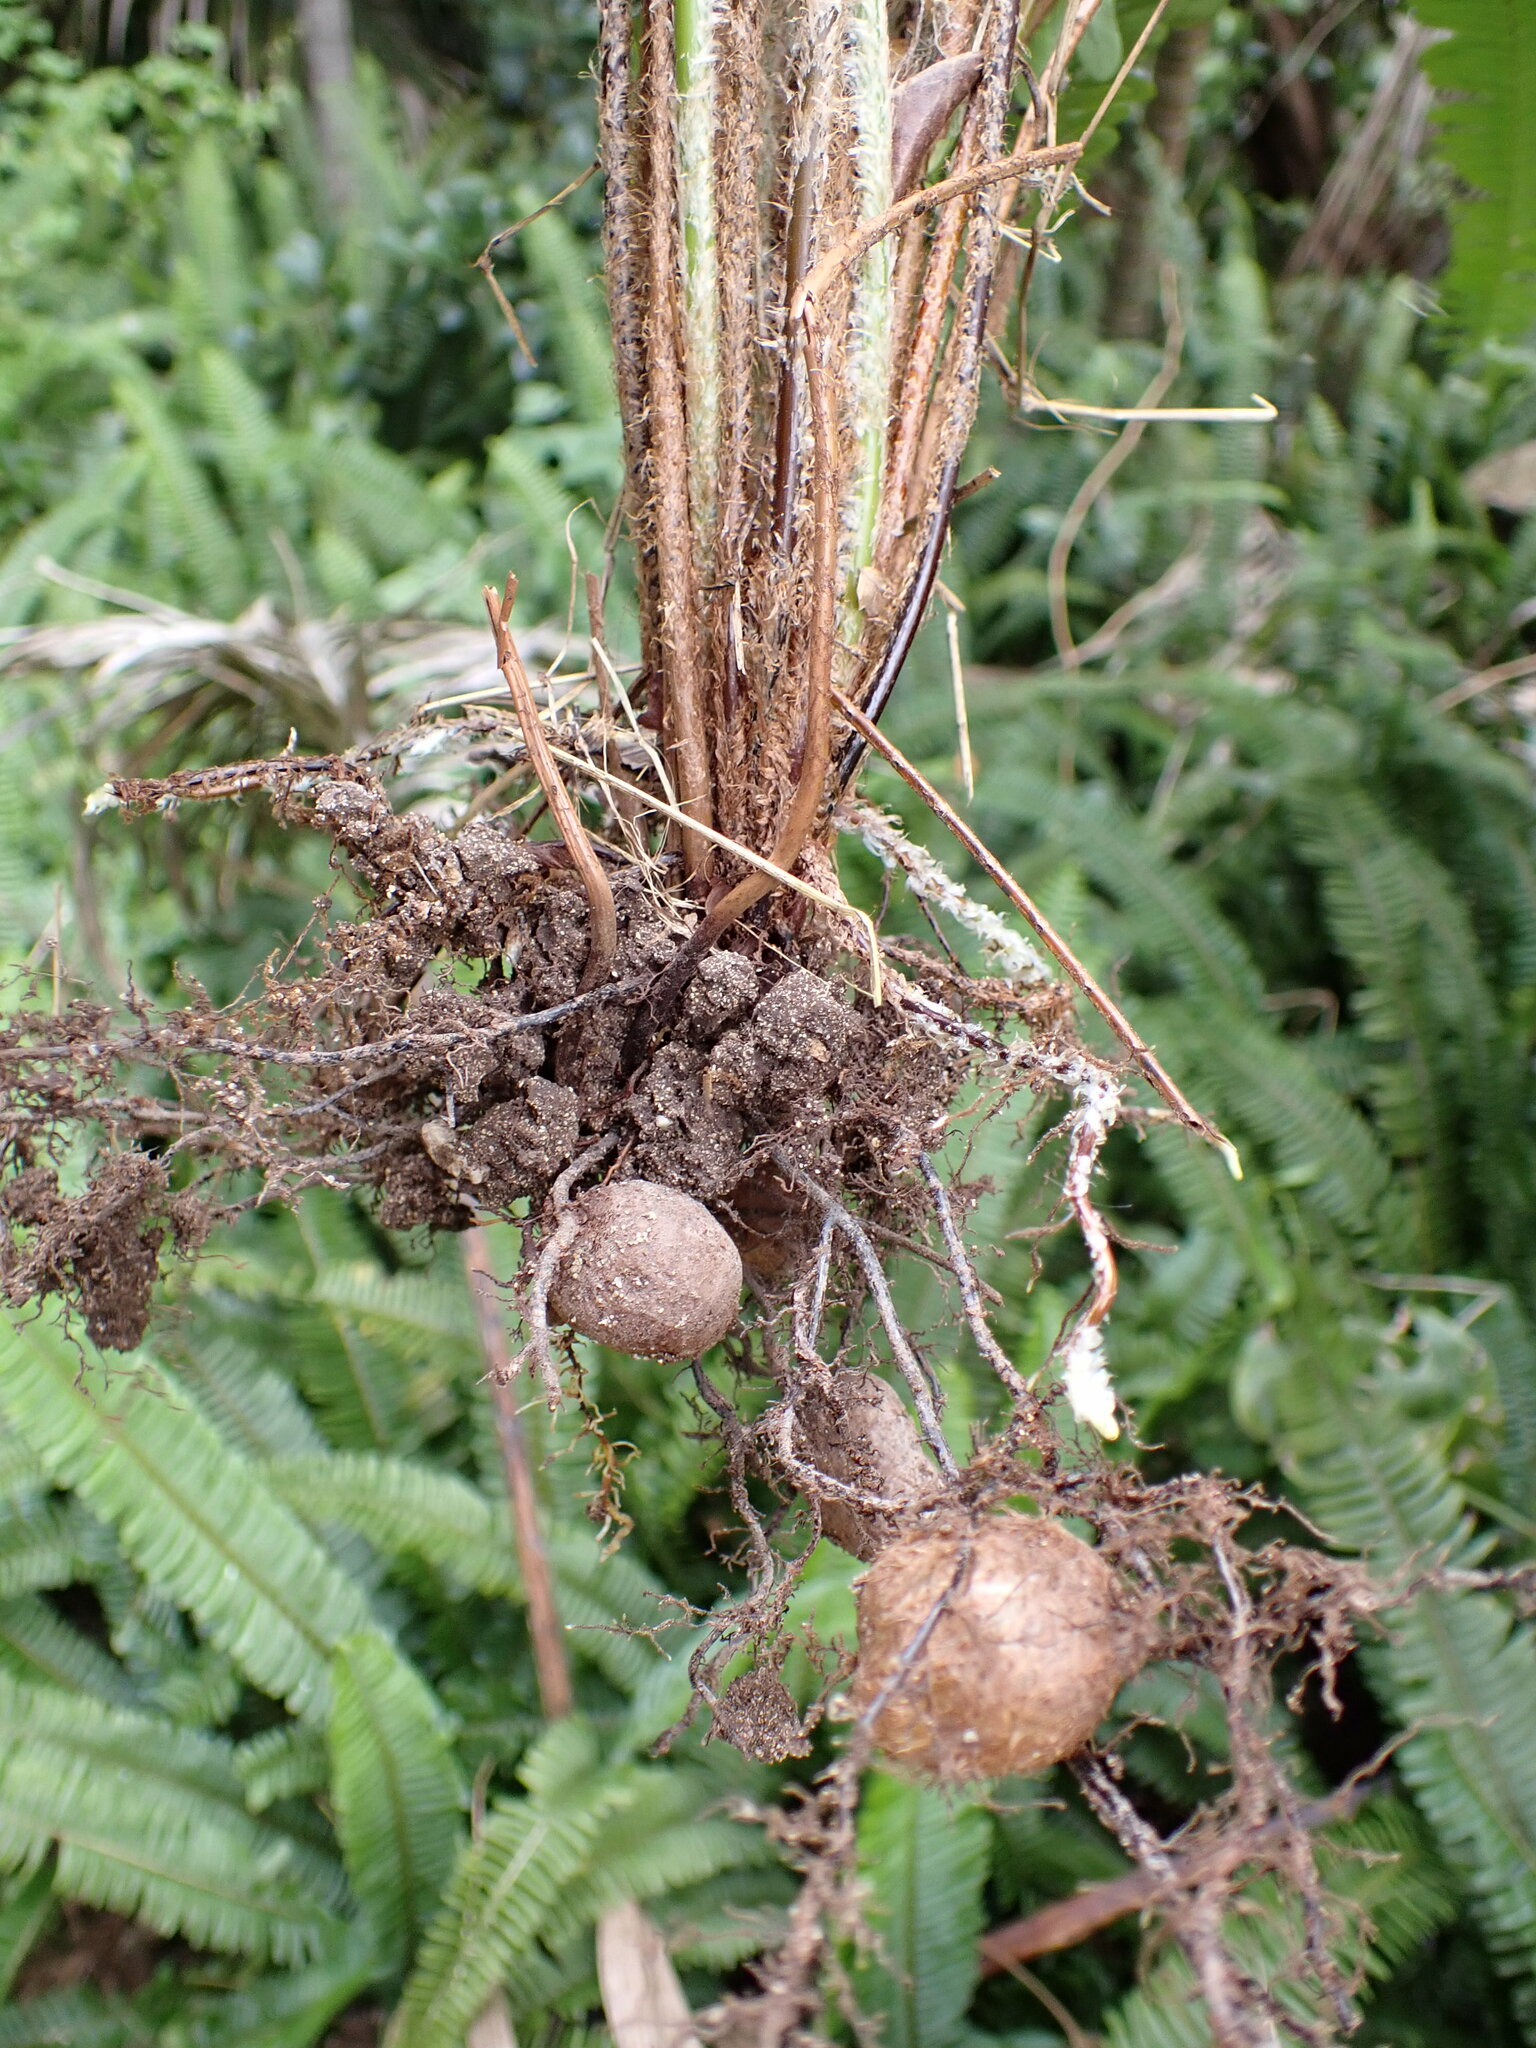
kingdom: Plantae
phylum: Tracheophyta
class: Polypodiopsida
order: Polypodiales
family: Nephrolepidaceae
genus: Nephrolepis
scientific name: Nephrolepis cordifolia
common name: Narrow swordfern
